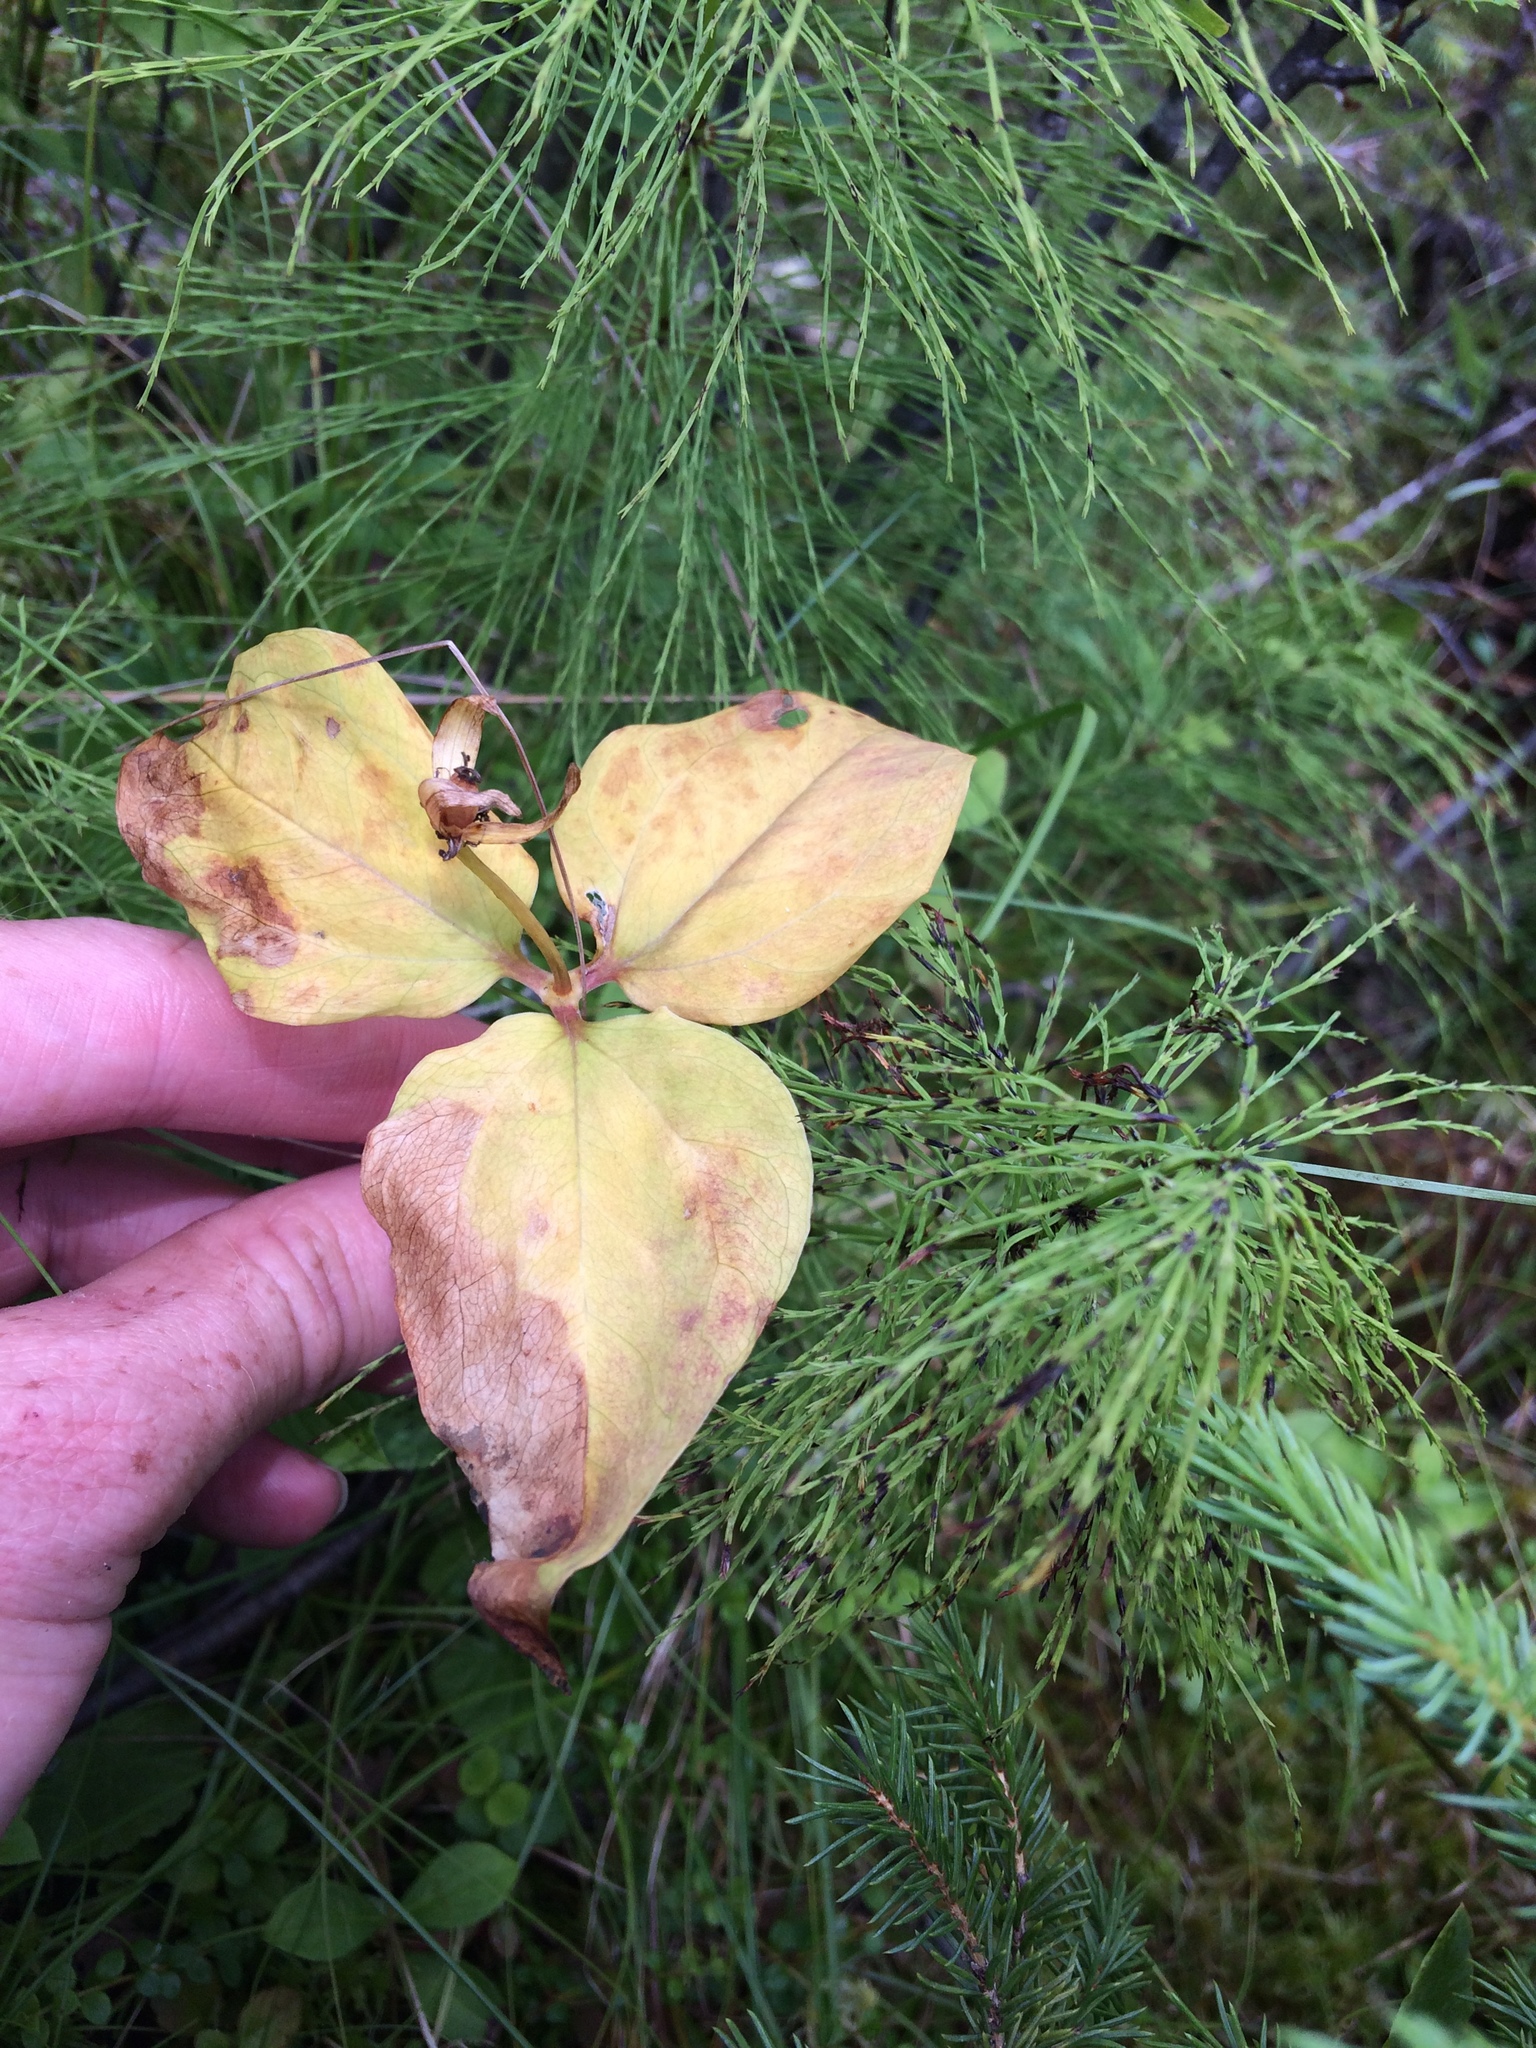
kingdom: Plantae
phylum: Tracheophyta
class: Liliopsida
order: Liliales
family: Melanthiaceae
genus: Trillium
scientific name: Trillium undulatum
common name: Paint trillium
